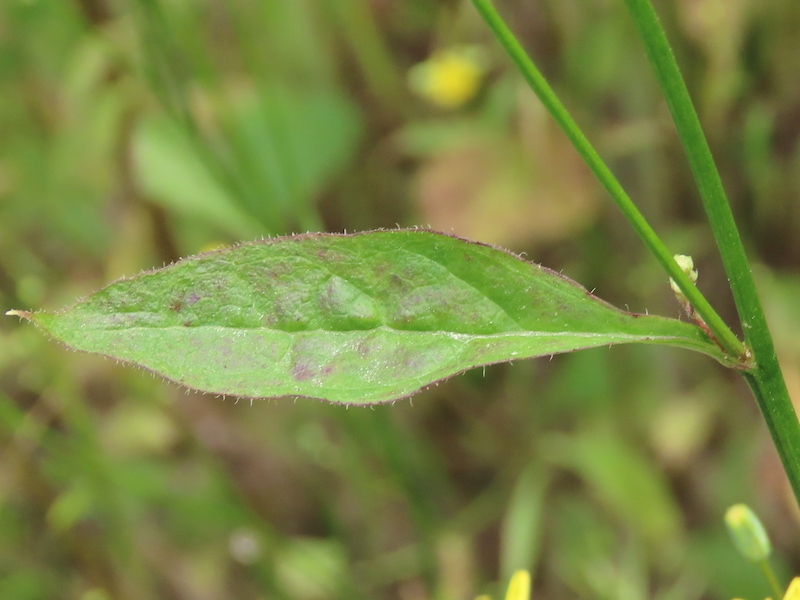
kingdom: Plantae
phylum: Tracheophyta
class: Magnoliopsida
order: Asterales
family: Asteraceae
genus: Lapsana
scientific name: Lapsana communis
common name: Nipplewort
